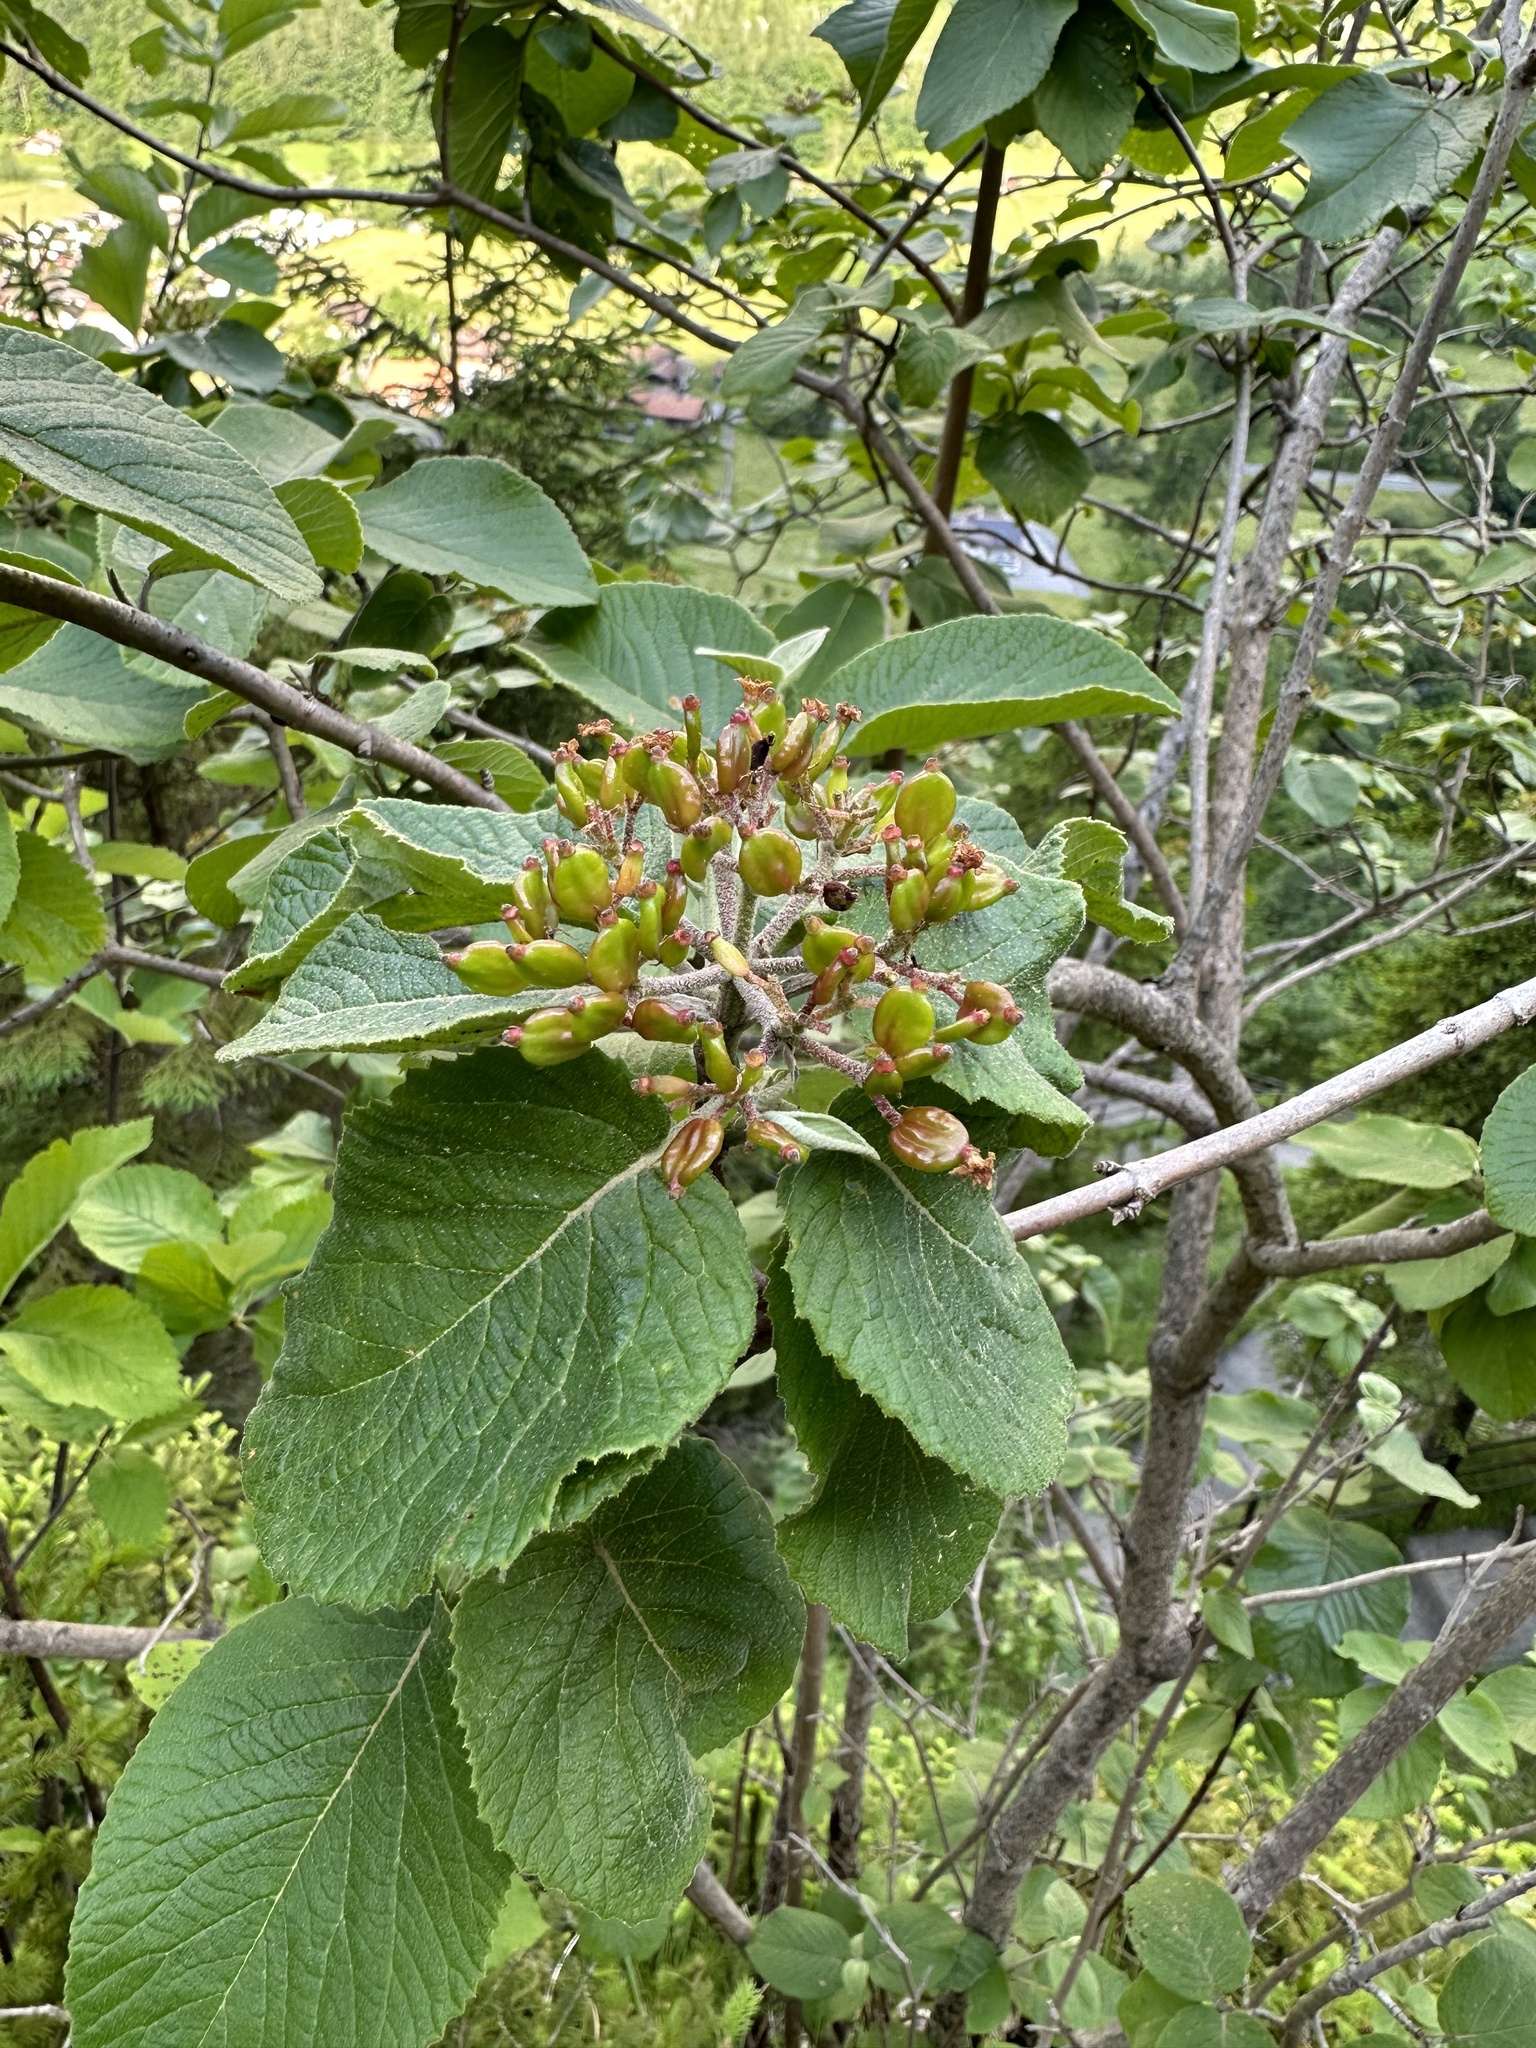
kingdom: Plantae
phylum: Tracheophyta
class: Magnoliopsida
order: Dipsacales
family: Viburnaceae
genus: Viburnum
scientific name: Viburnum lantana
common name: Wayfaring tree
